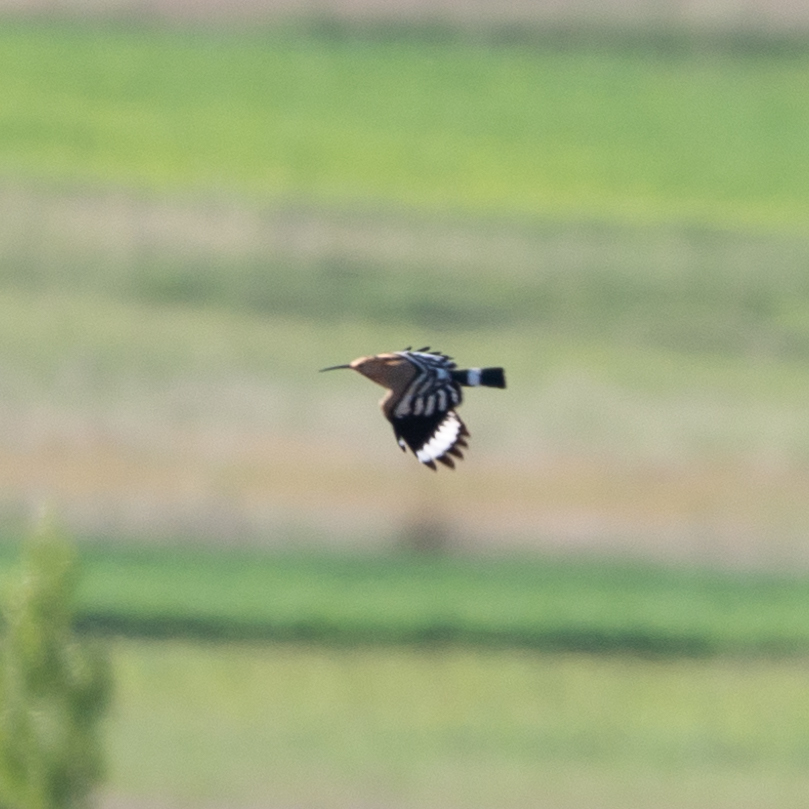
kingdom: Animalia
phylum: Chordata
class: Aves
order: Bucerotiformes
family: Upupidae
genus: Upupa
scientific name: Upupa epops
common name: Eurasian hoopoe
